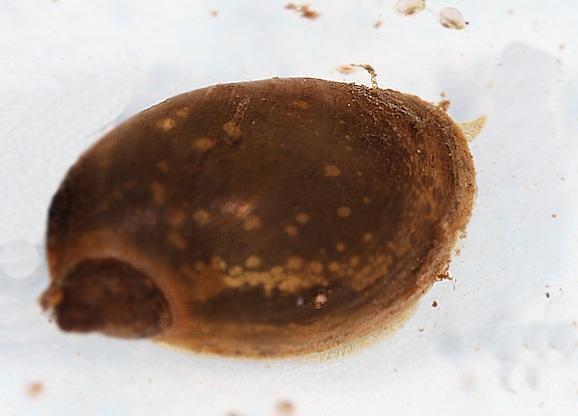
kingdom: Animalia
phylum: Mollusca
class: Gastropoda
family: Lymnaeidae
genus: Radix
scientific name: Radix natalensis
